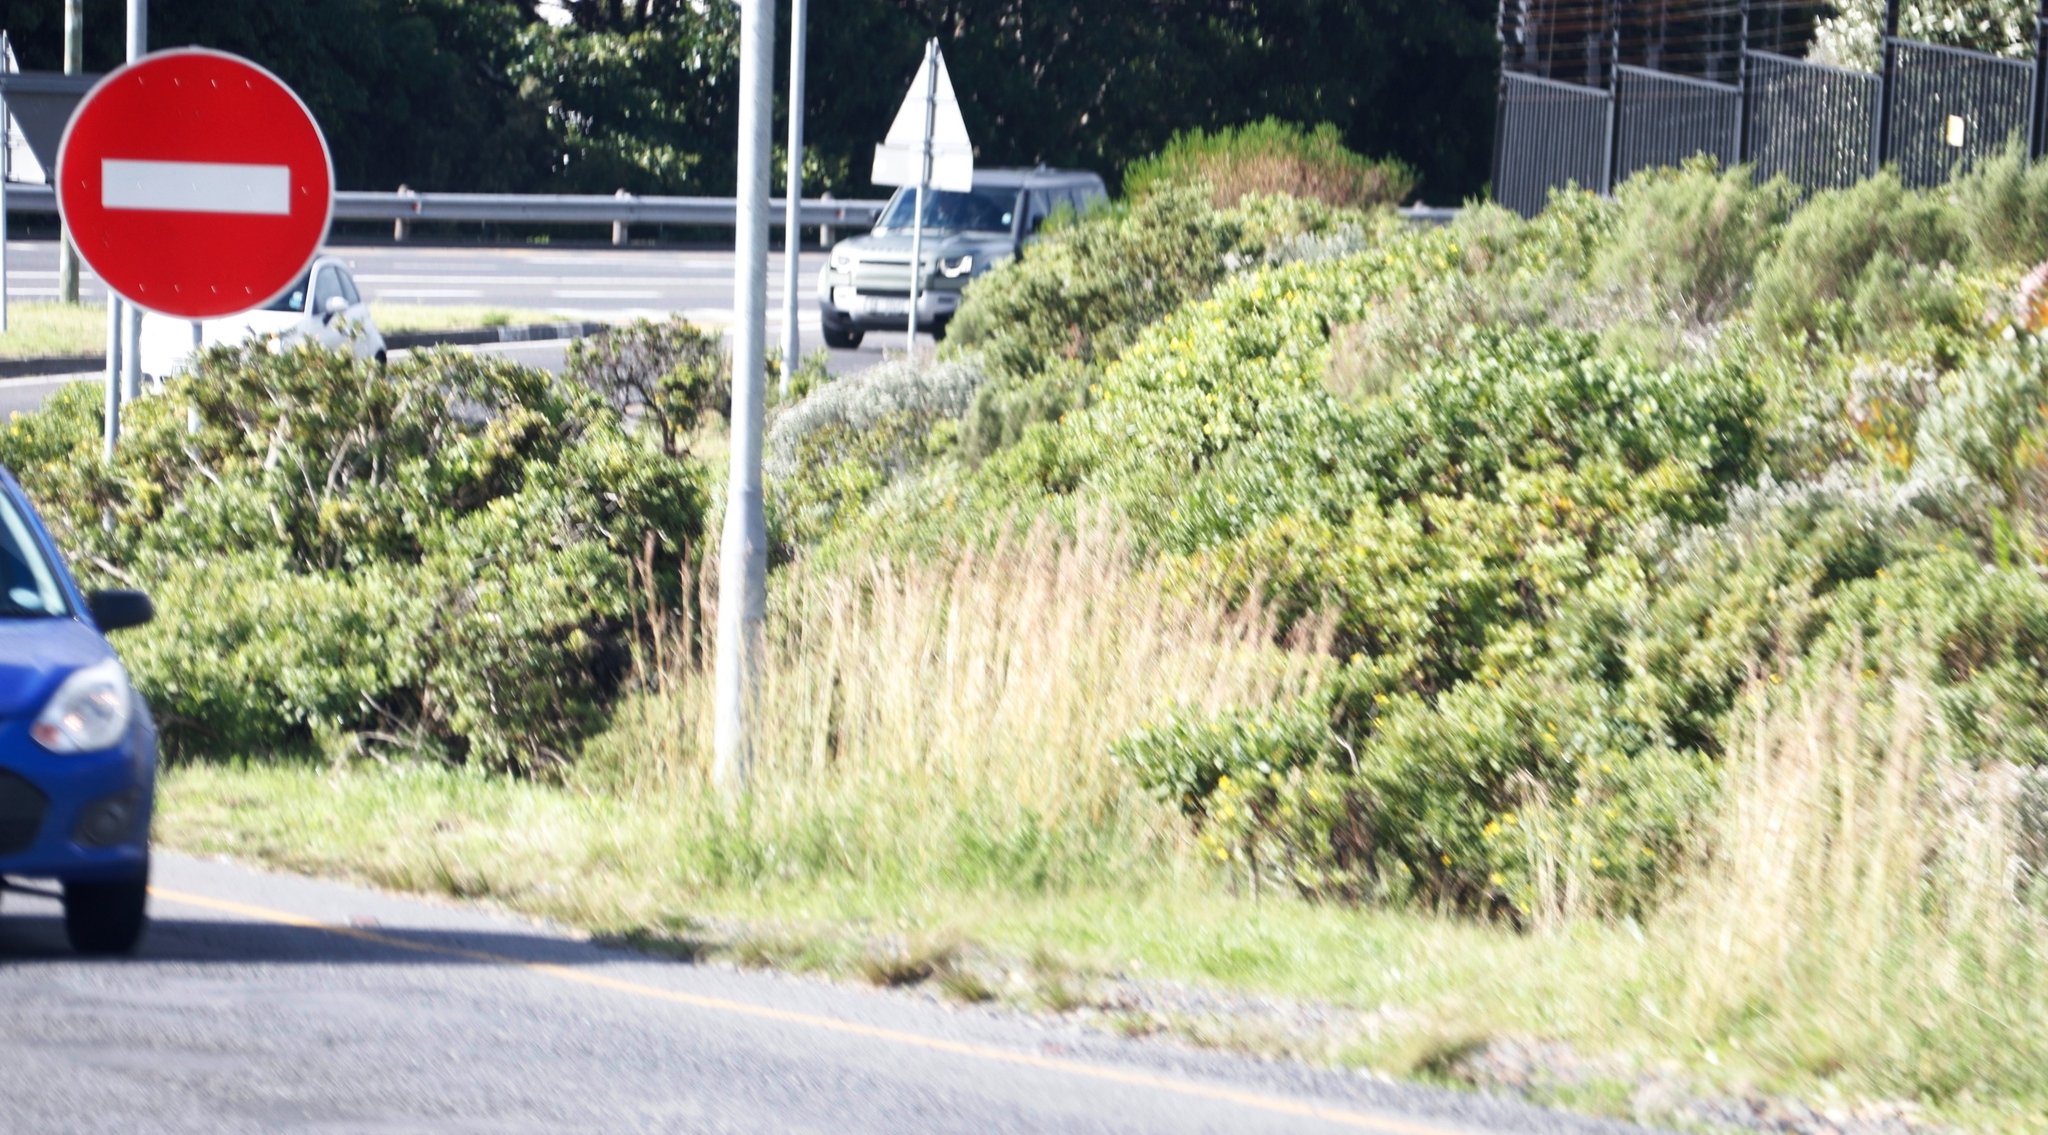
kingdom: Plantae
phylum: Tracheophyta
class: Magnoliopsida
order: Asterales
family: Asteraceae
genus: Osteospermum
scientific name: Osteospermum moniliferum
